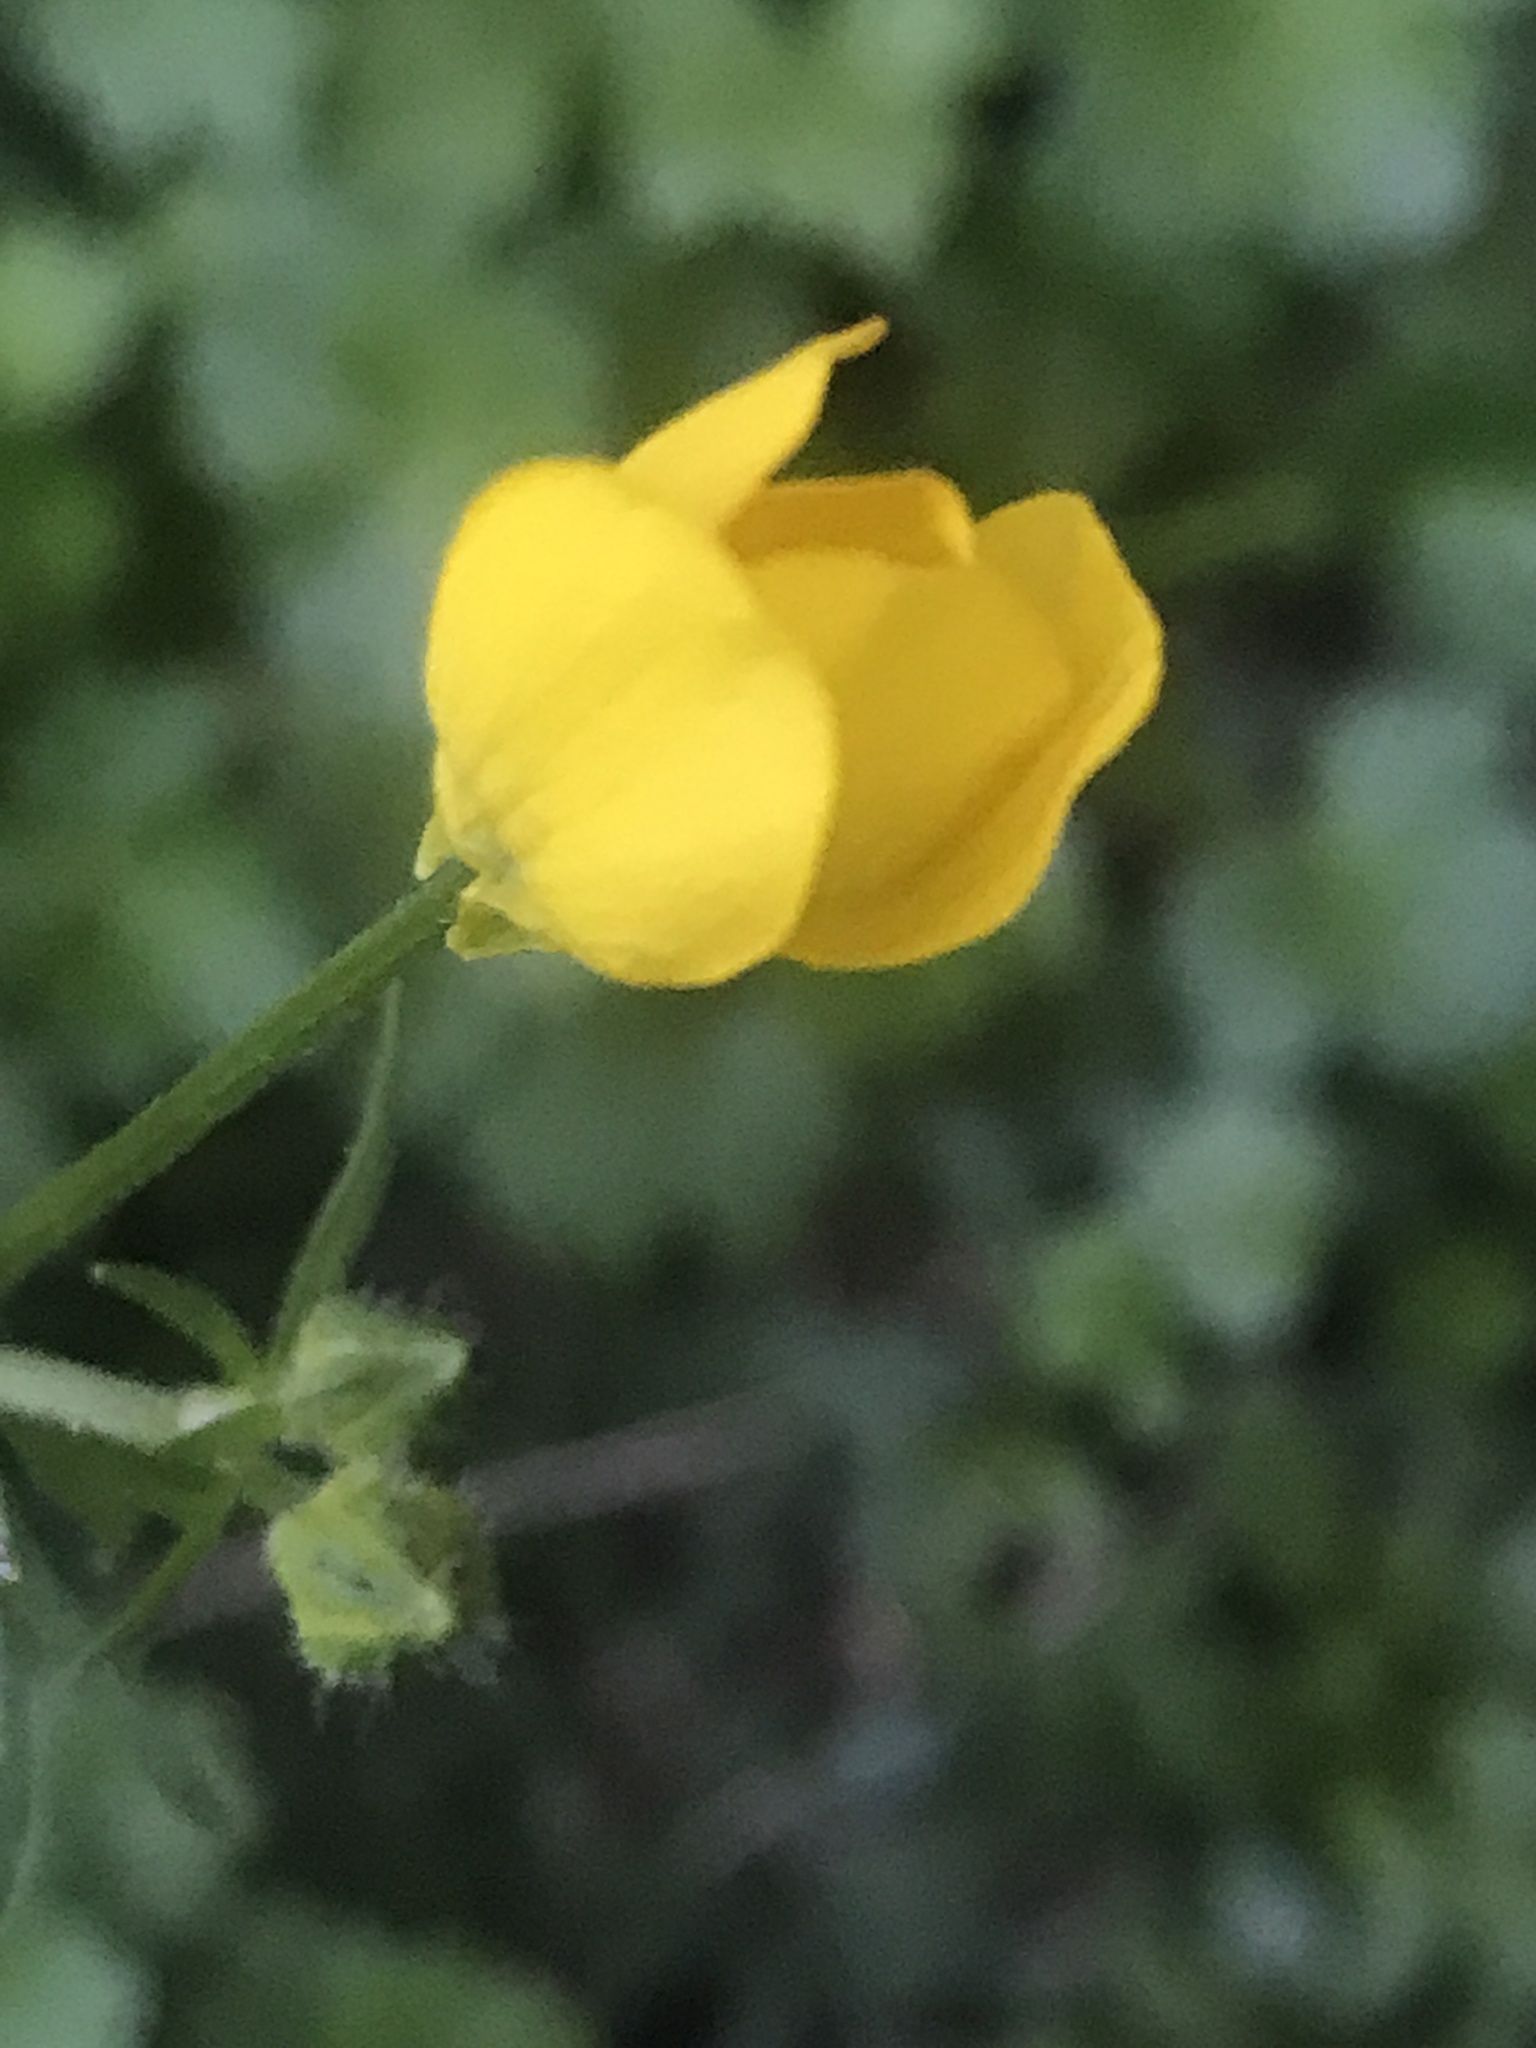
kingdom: Plantae
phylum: Tracheophyta
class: Magnoliopsida
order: Ranunculales
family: Ranunculaceae
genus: Ranunculus
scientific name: Ranunculus bulbosus
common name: Bulbous buttercup
